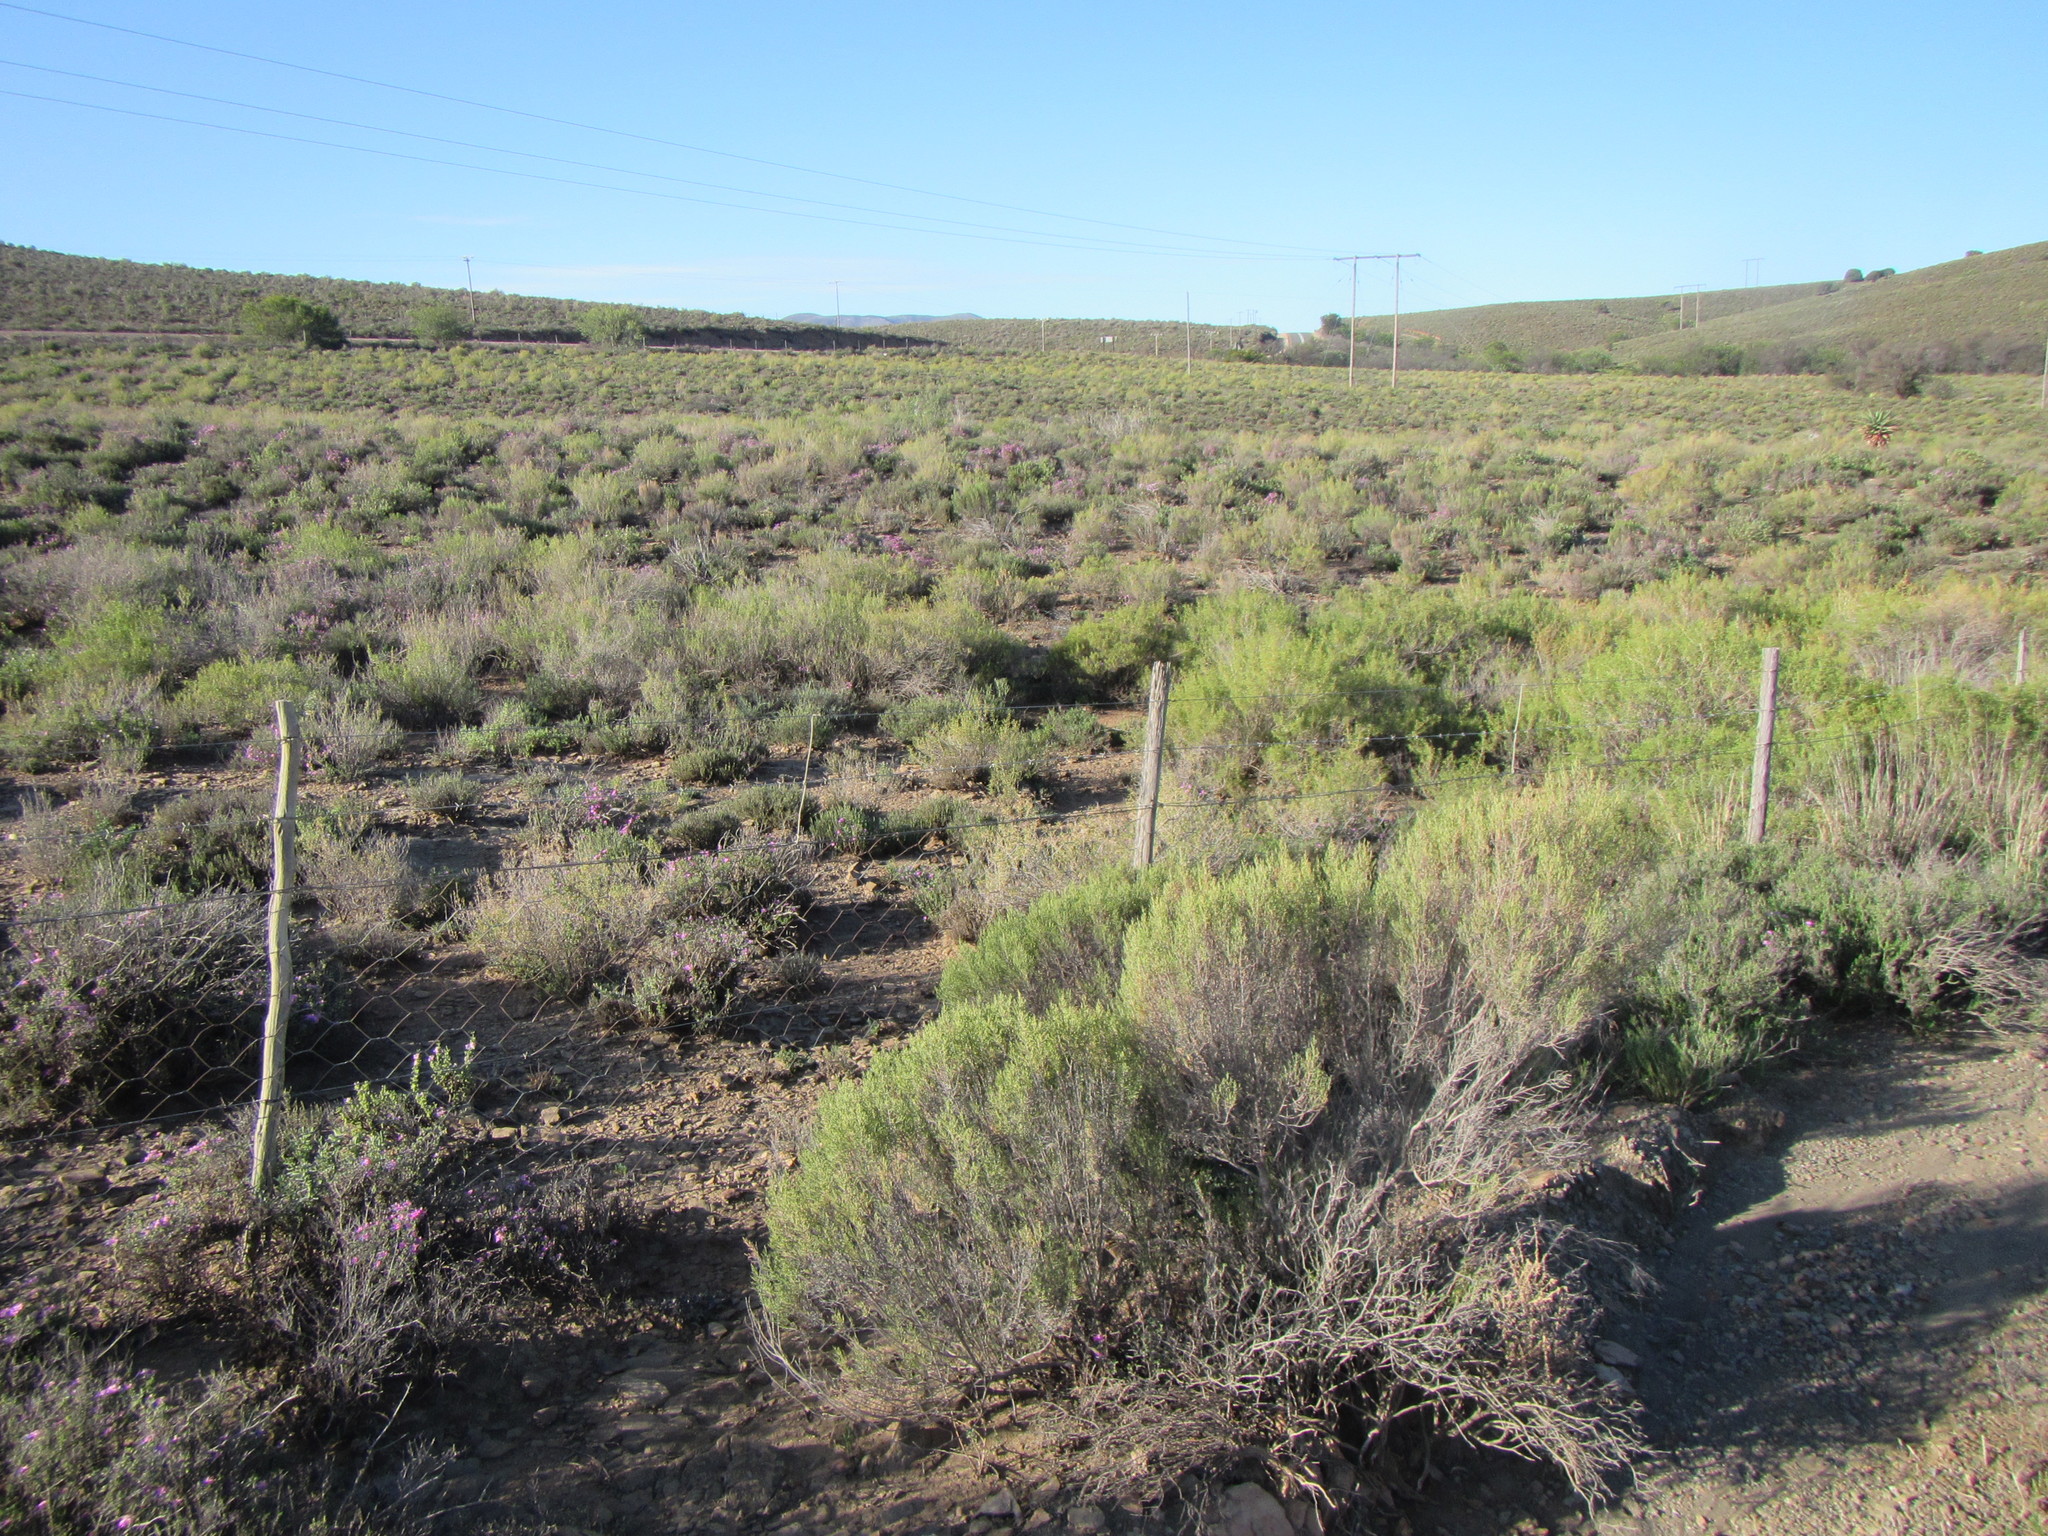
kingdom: Plantae
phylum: Tracheophyta
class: Magnoliopsida
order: Asterales
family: Asteraceae
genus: Dicerothamnus
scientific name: Dicerothamnus rhinocerotis
